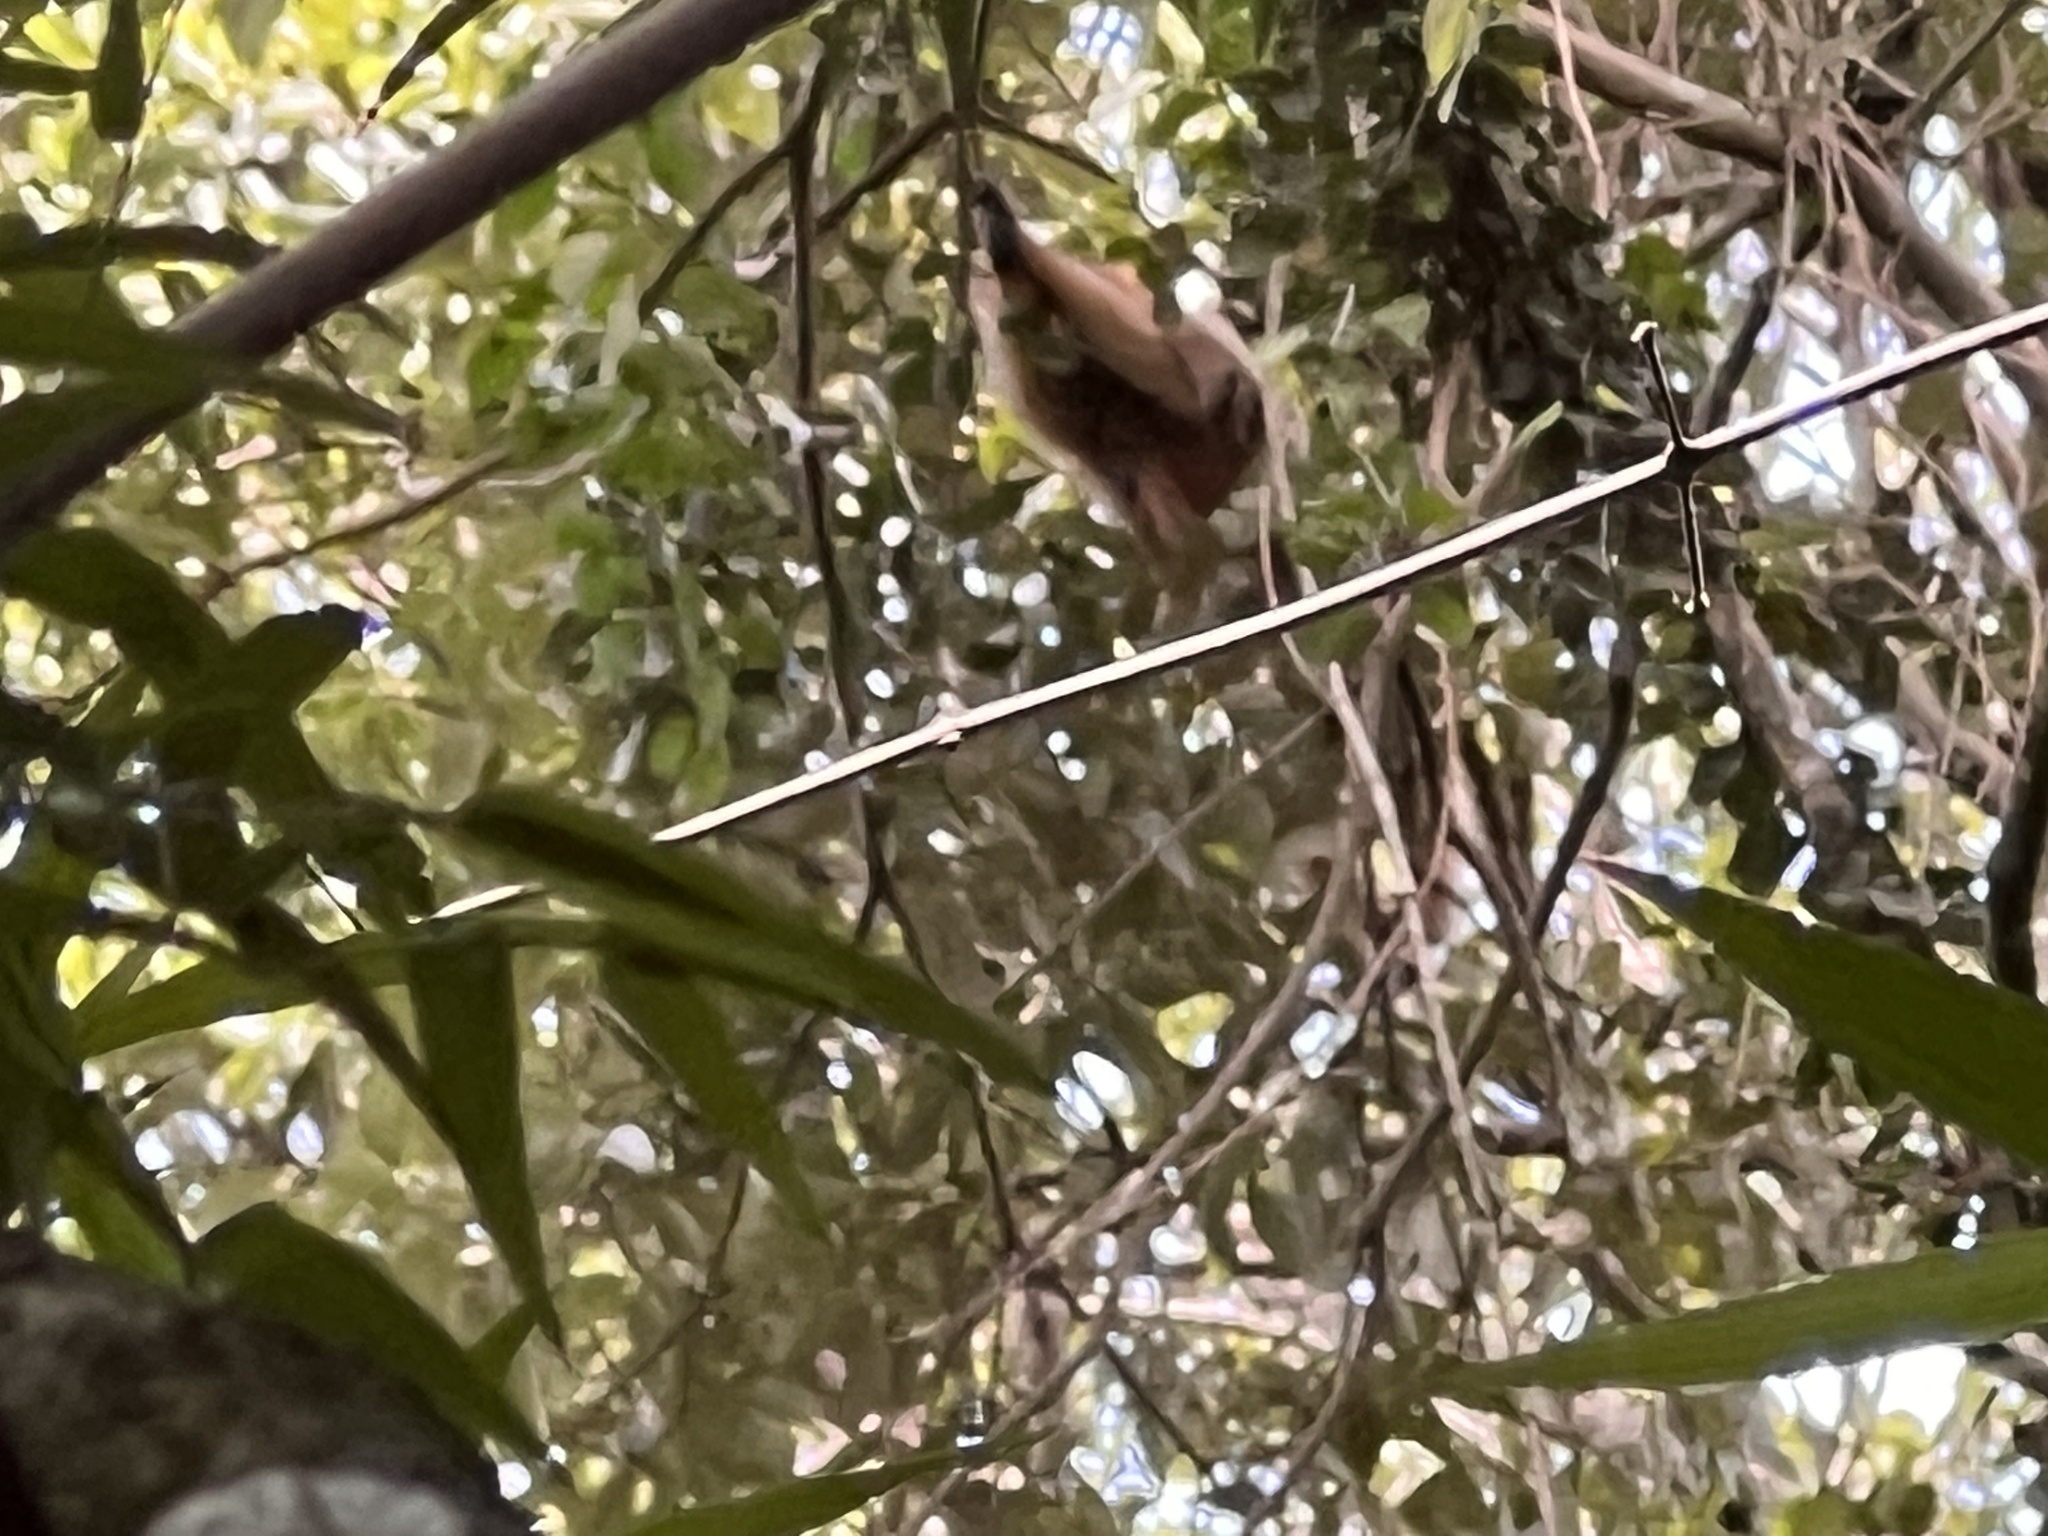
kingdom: Animalia
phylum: Chordata
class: Mammalia
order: Primates
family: Atelidae
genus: Alouatta
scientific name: Alouatta caraya
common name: Black howler
